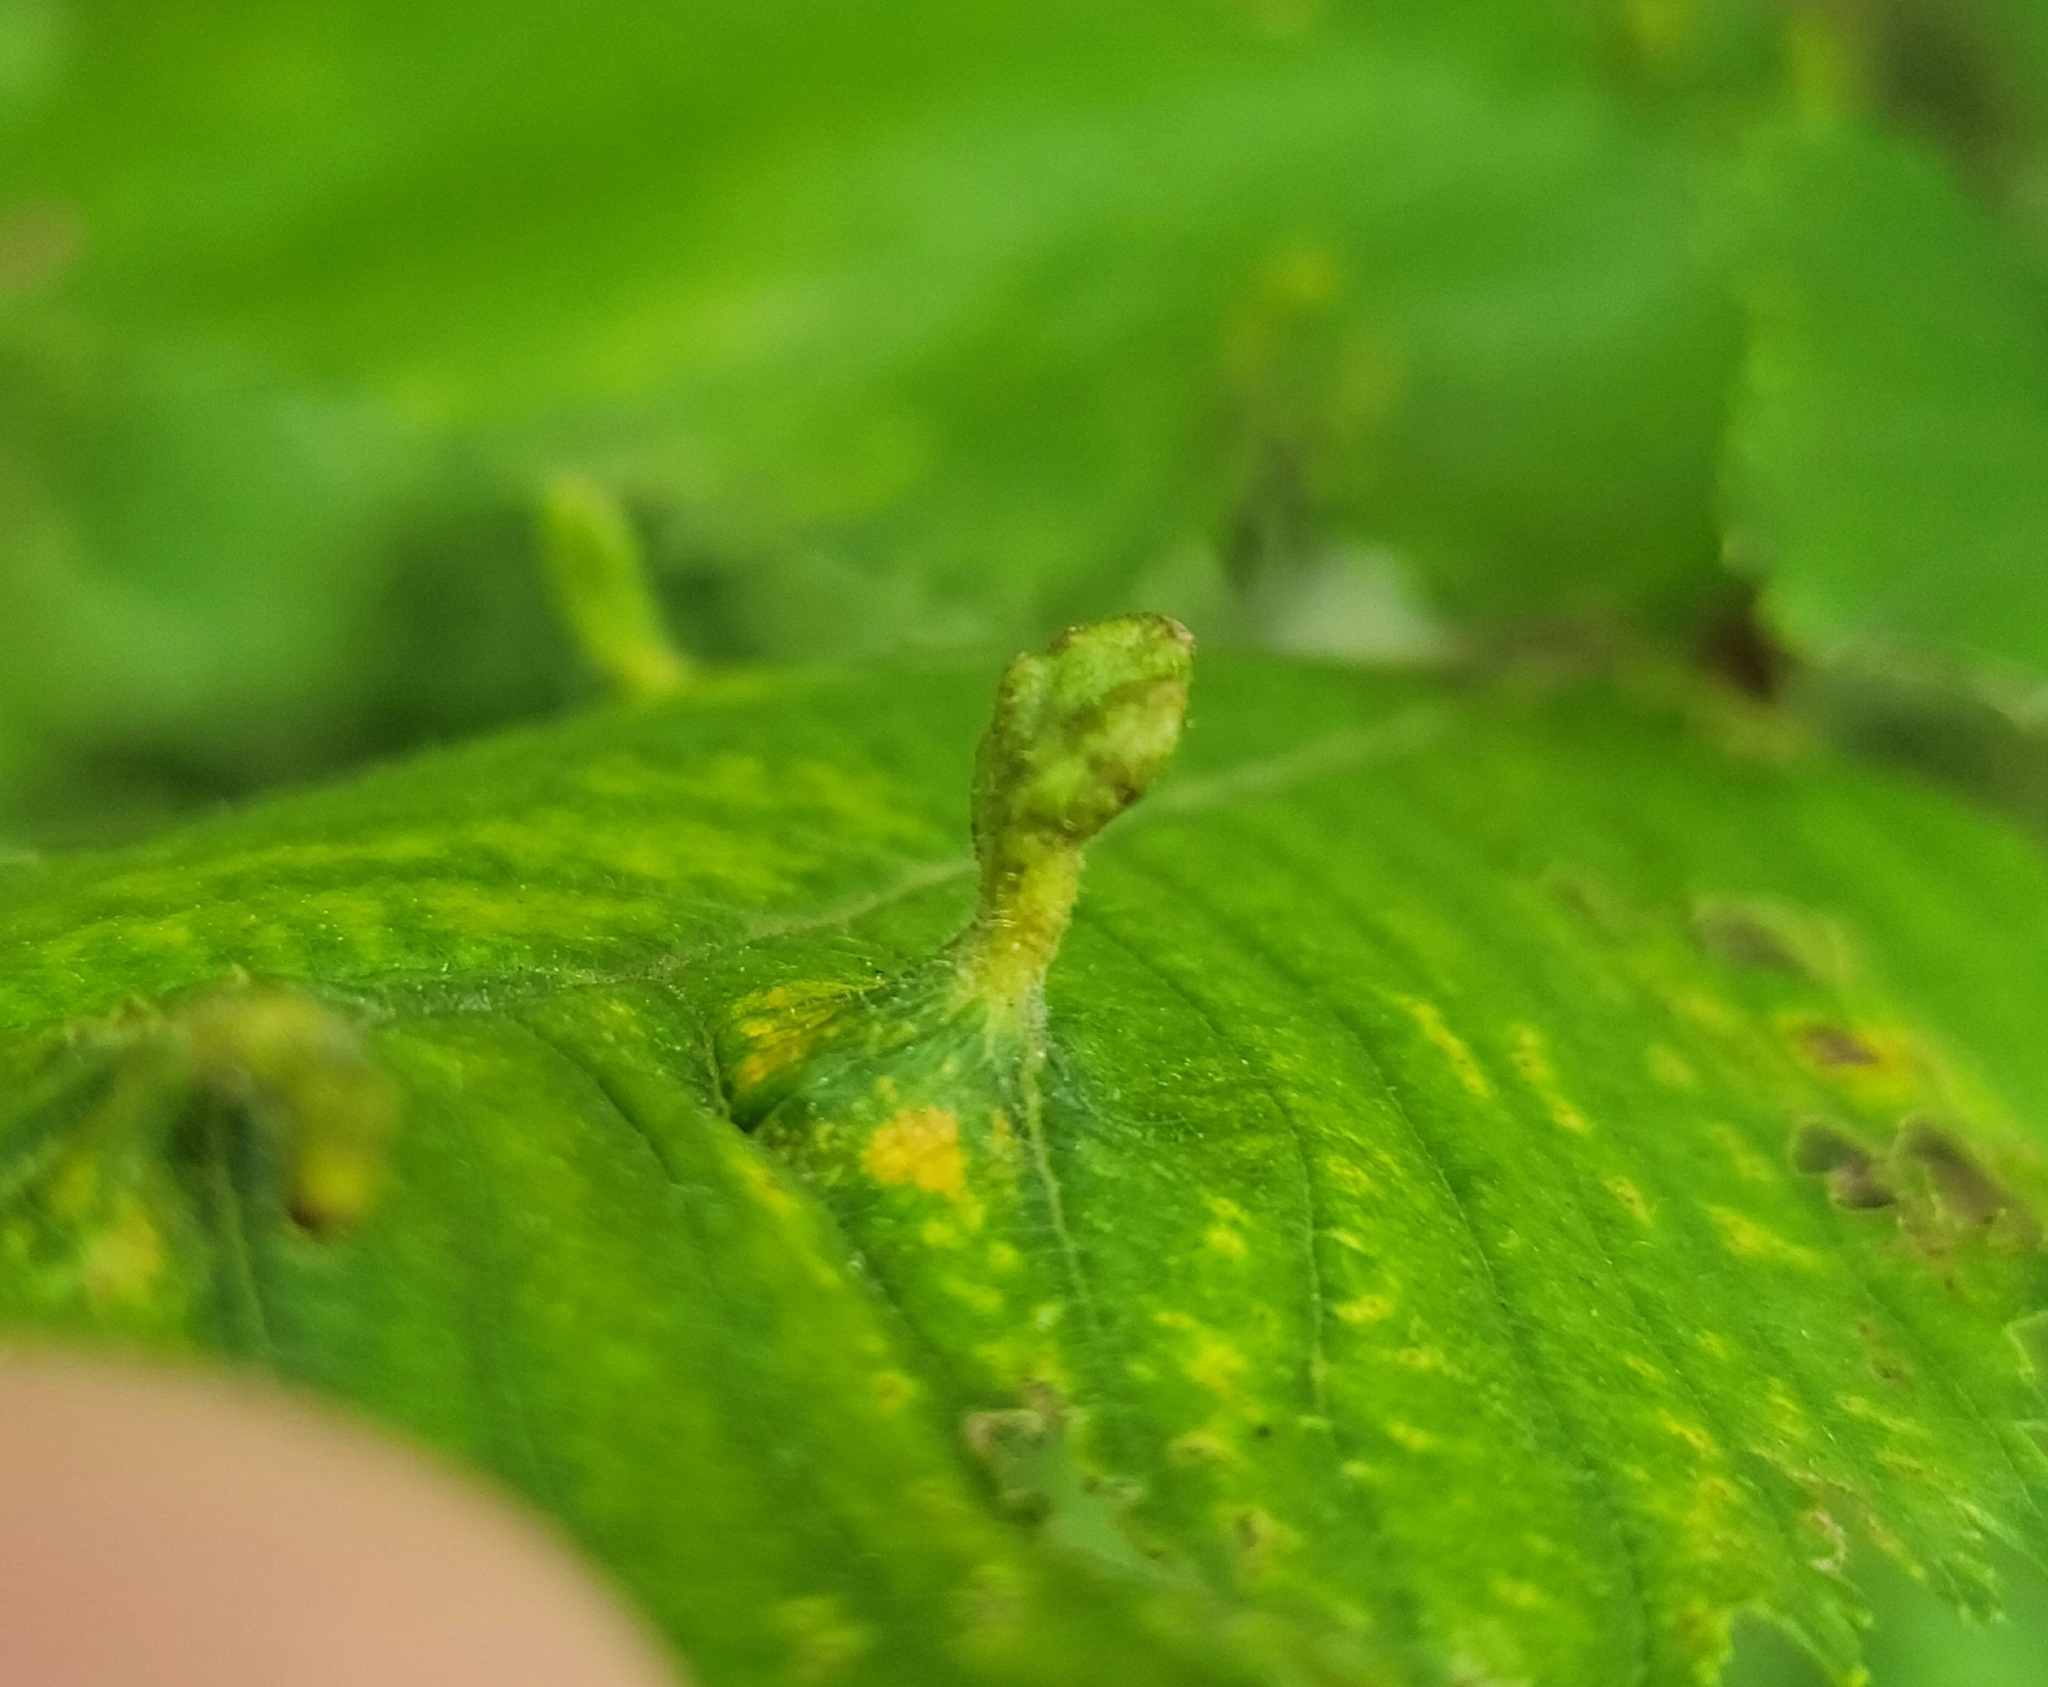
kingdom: Animalia
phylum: Arthropoda
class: Arachnida
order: Trombidiformes
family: Eriophyidae
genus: Aceria
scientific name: Aceria
